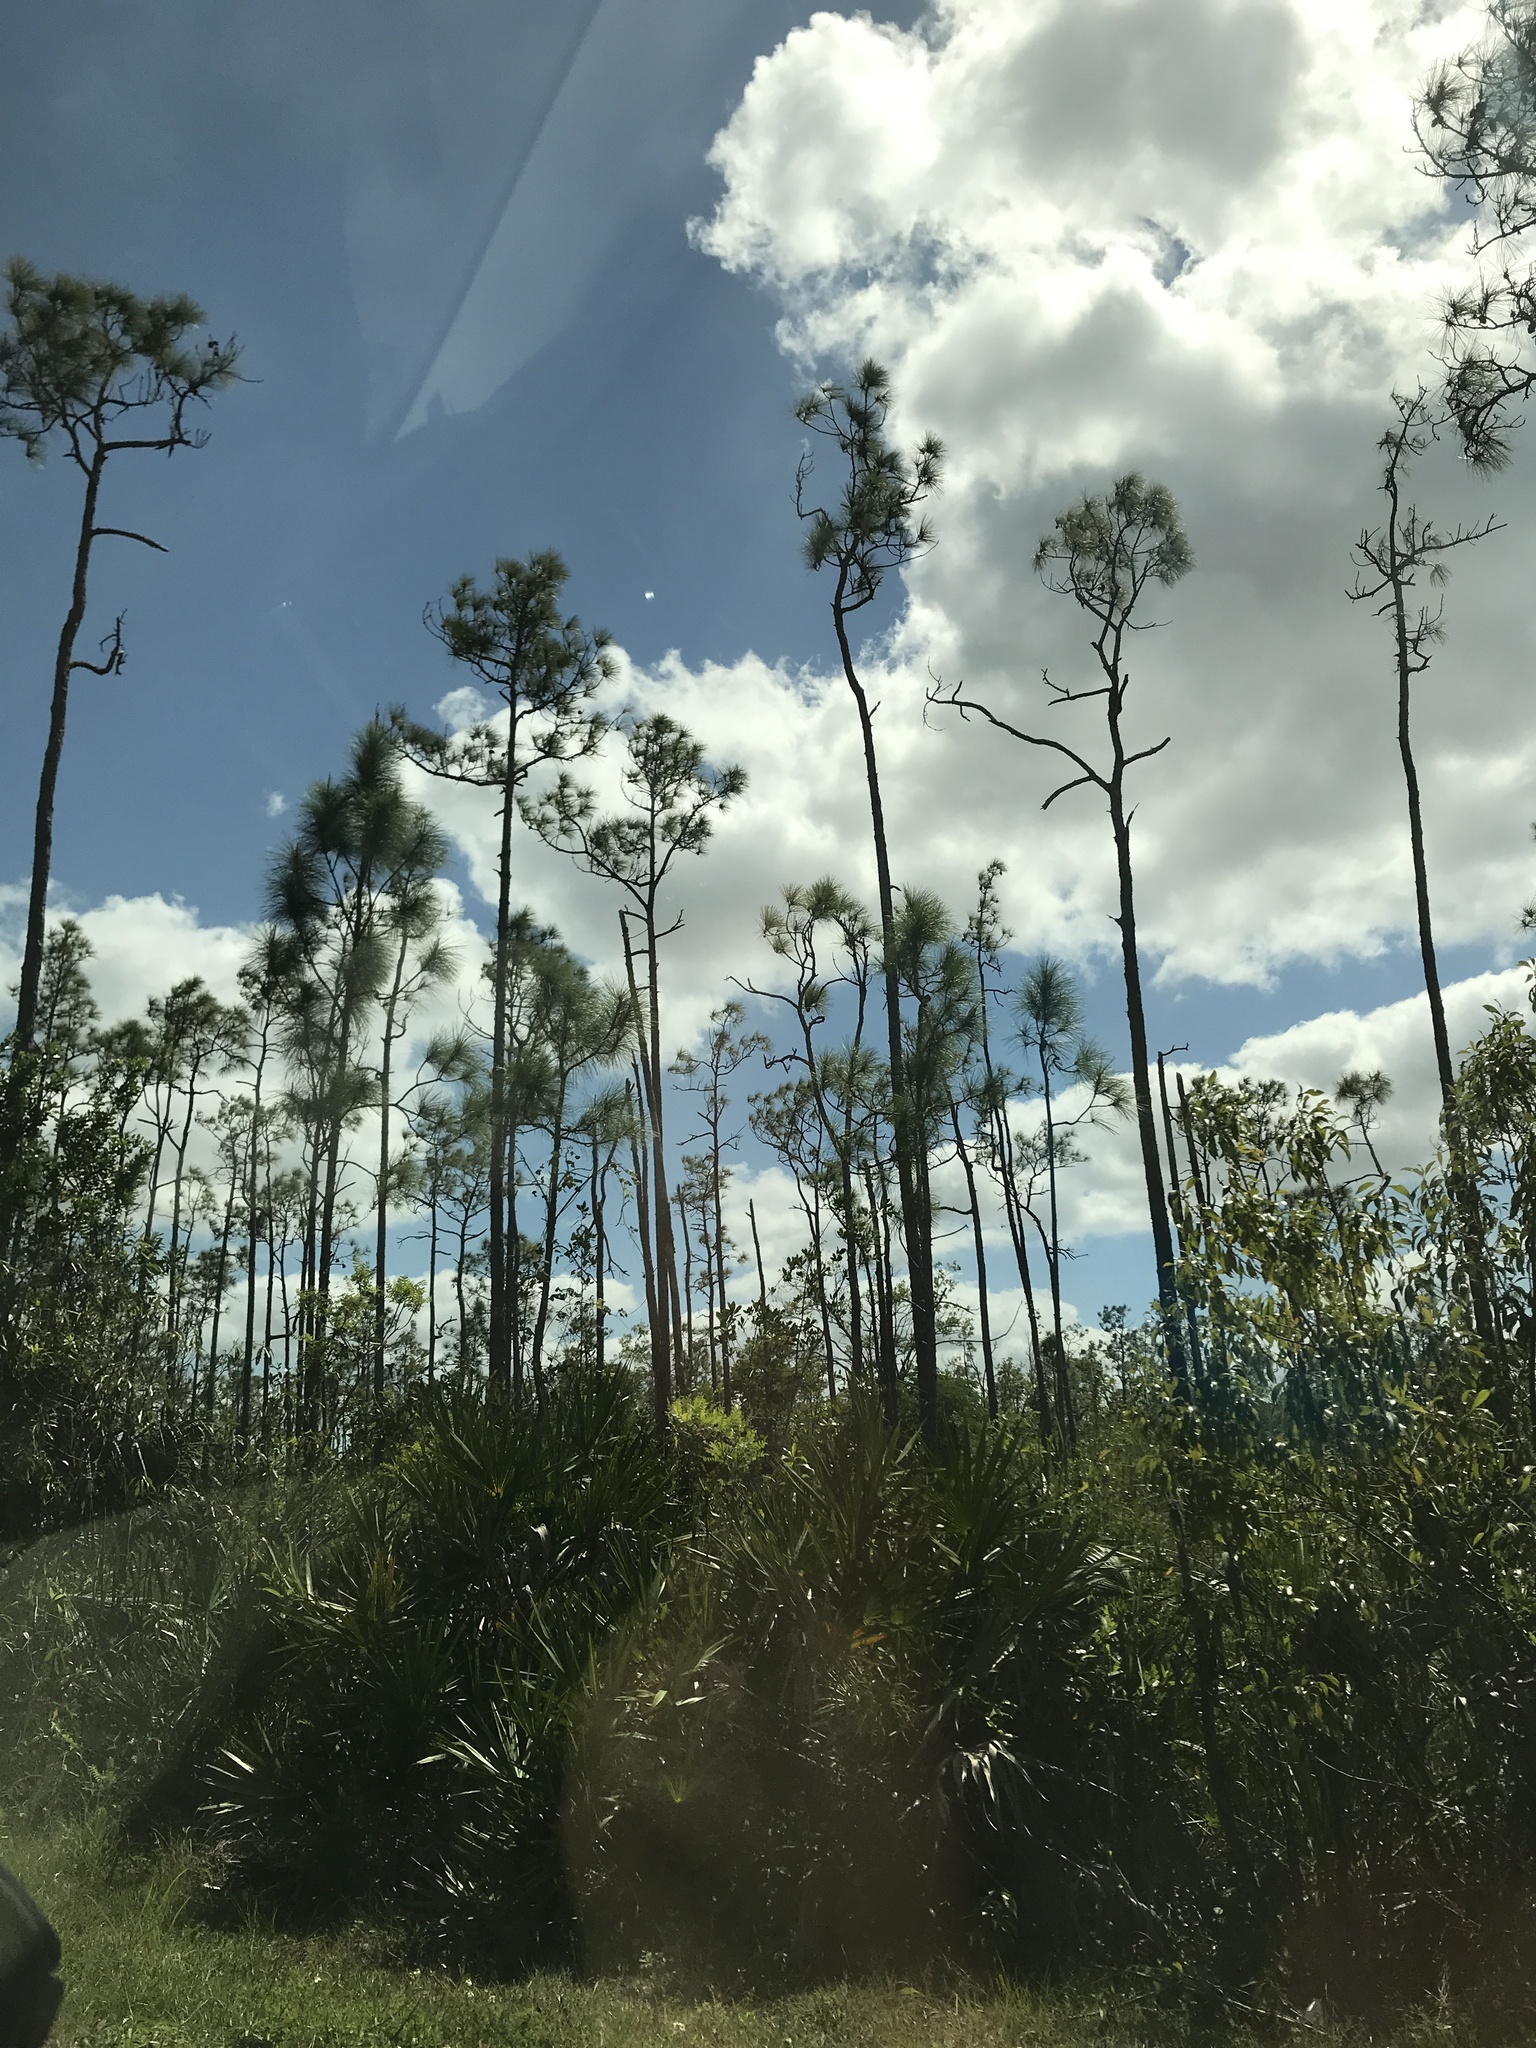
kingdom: Plantae
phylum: Tracheophyta
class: Pinopsida
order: Pinales
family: Pinaceae
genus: Pinus
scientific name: Pinus elliottii
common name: Slash pine
